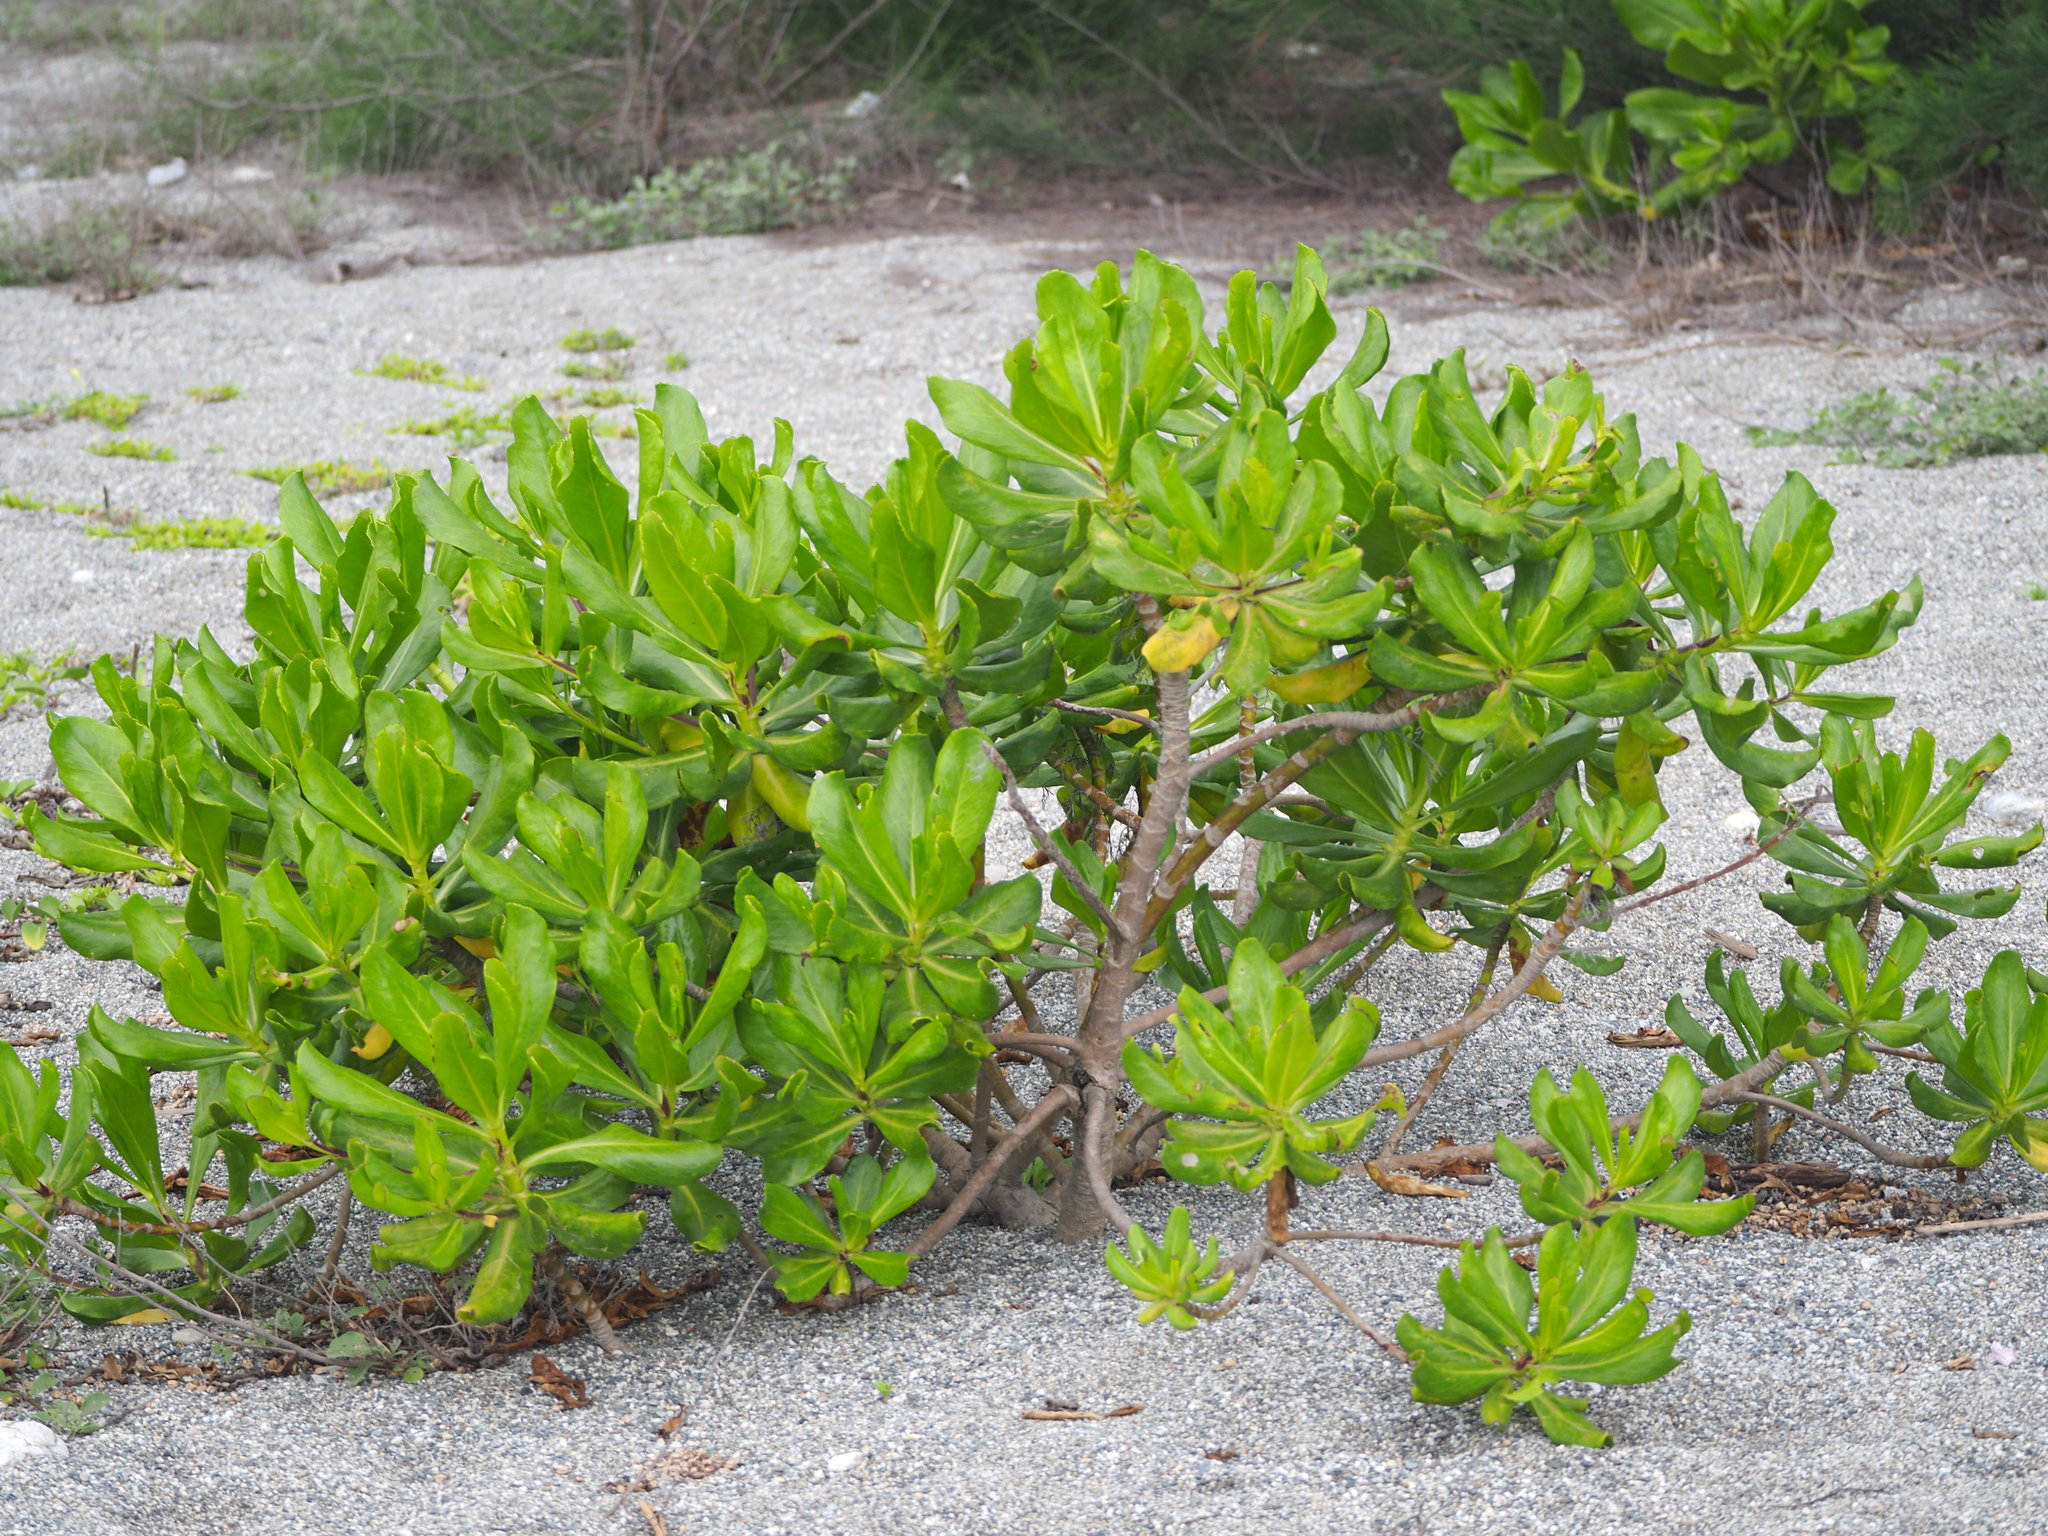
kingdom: Plantae
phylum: Tracheophyta
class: Magnoliopsida
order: Asterales
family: Goodeniaceae
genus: Scaevola
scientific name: Scaevola taccada
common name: Sea lettucetree
